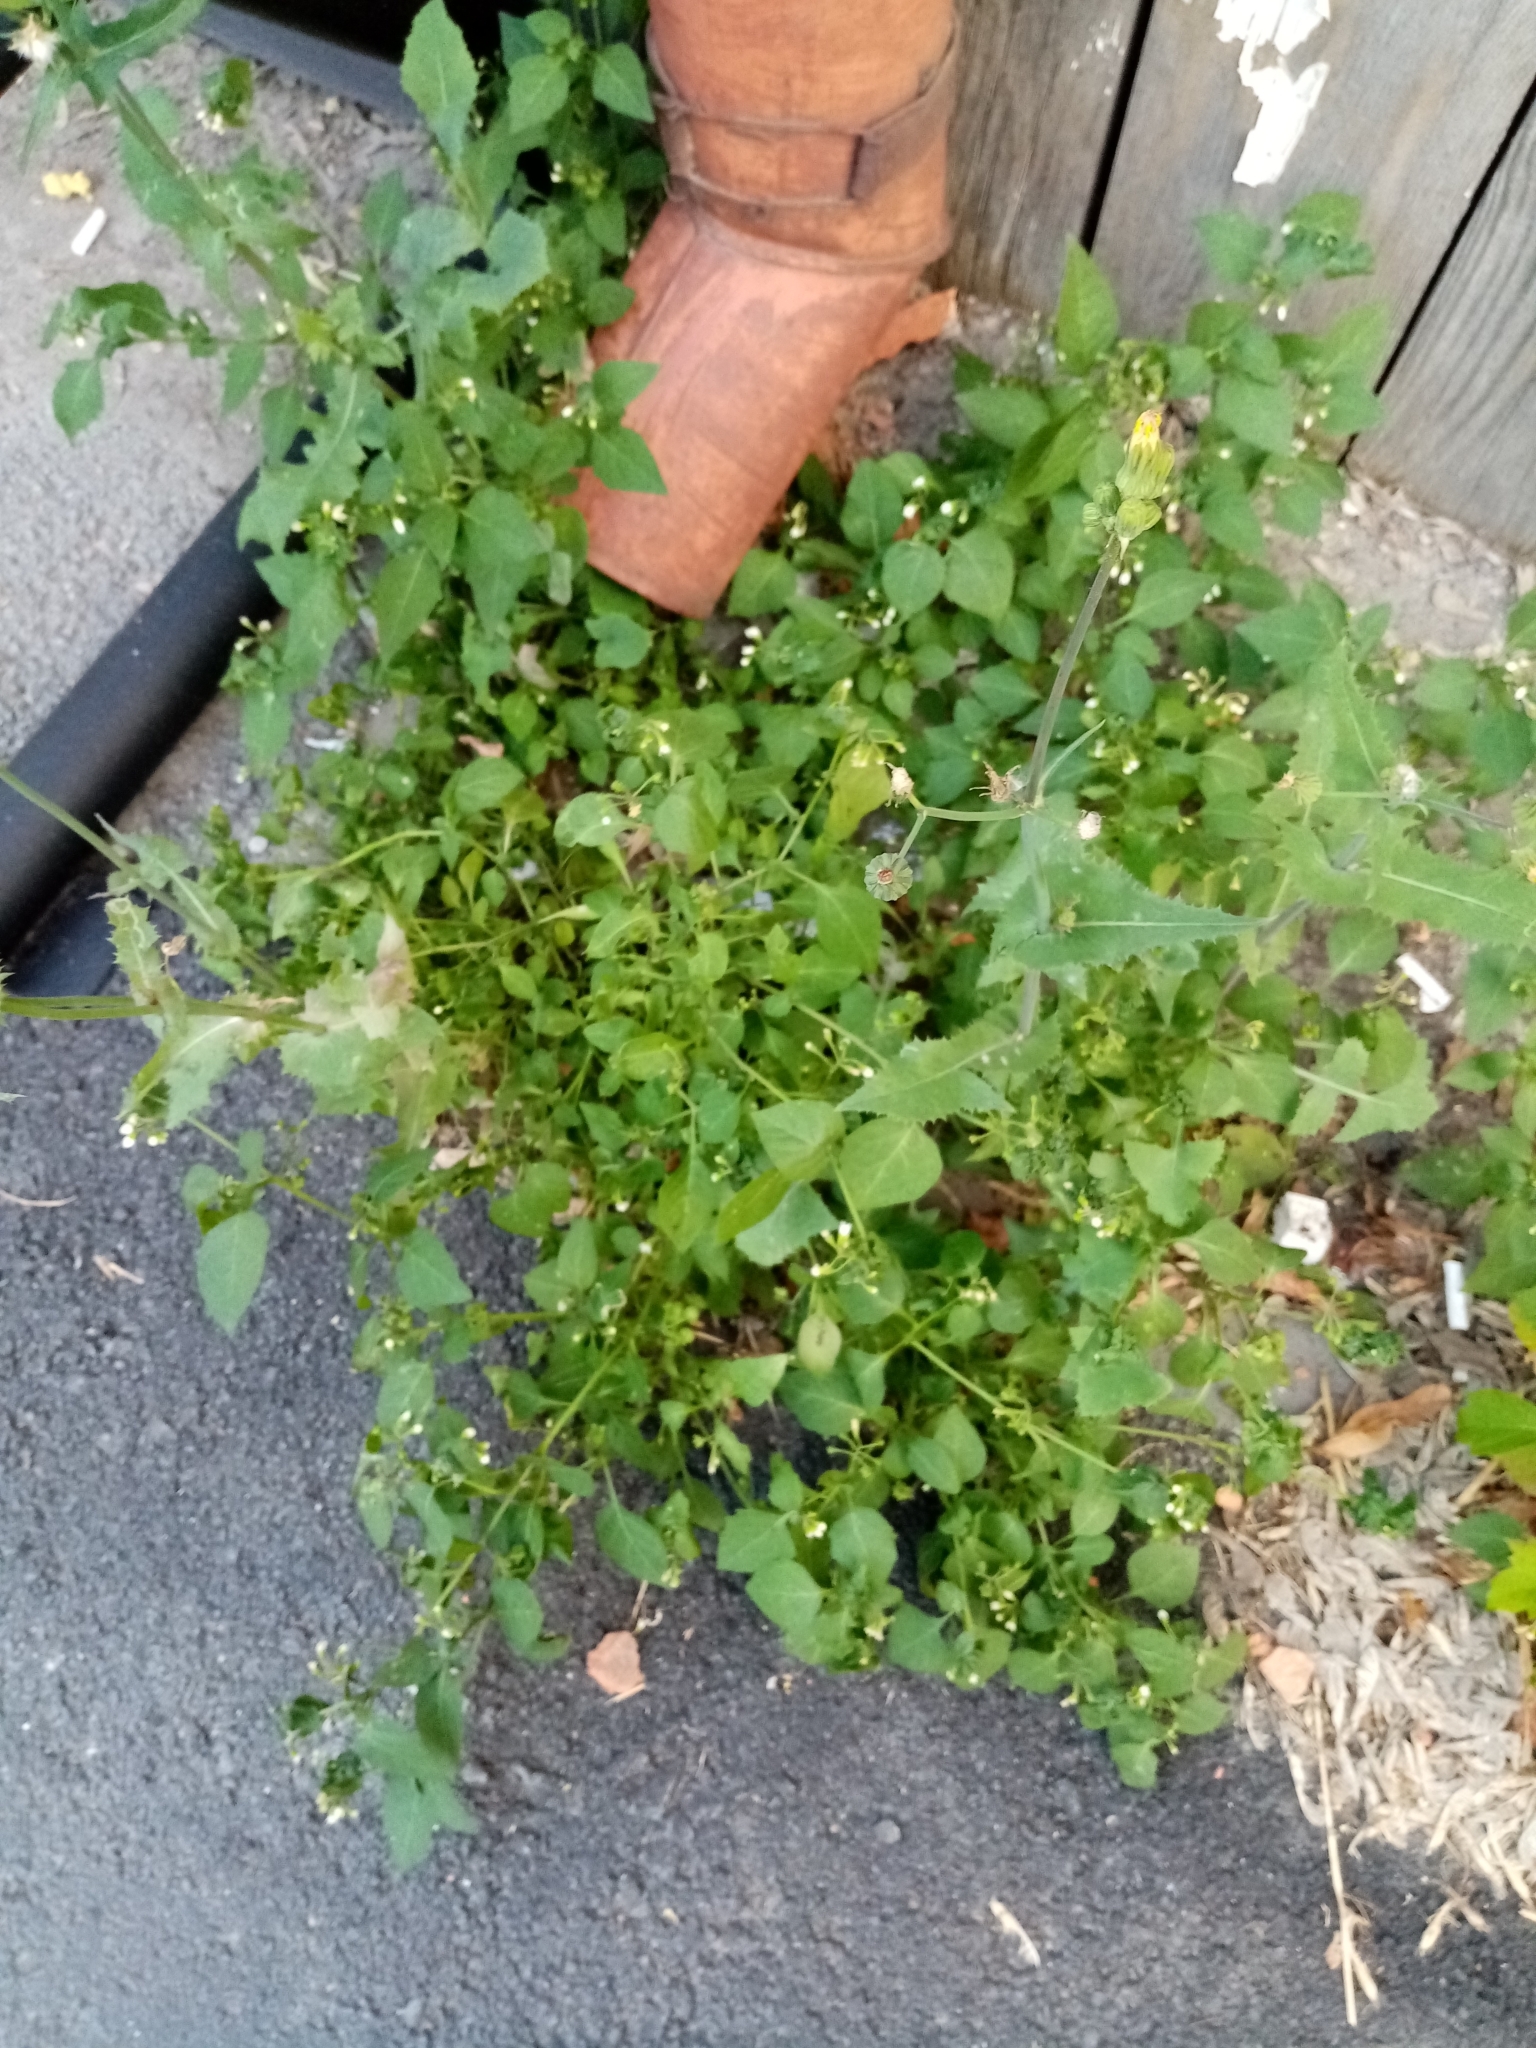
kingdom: Plantae
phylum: Tracheophyta
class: Magnoliopsida
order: Solanales
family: Solanaceae
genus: Solanum
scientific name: Solanum nigrum
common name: Black nightshade
